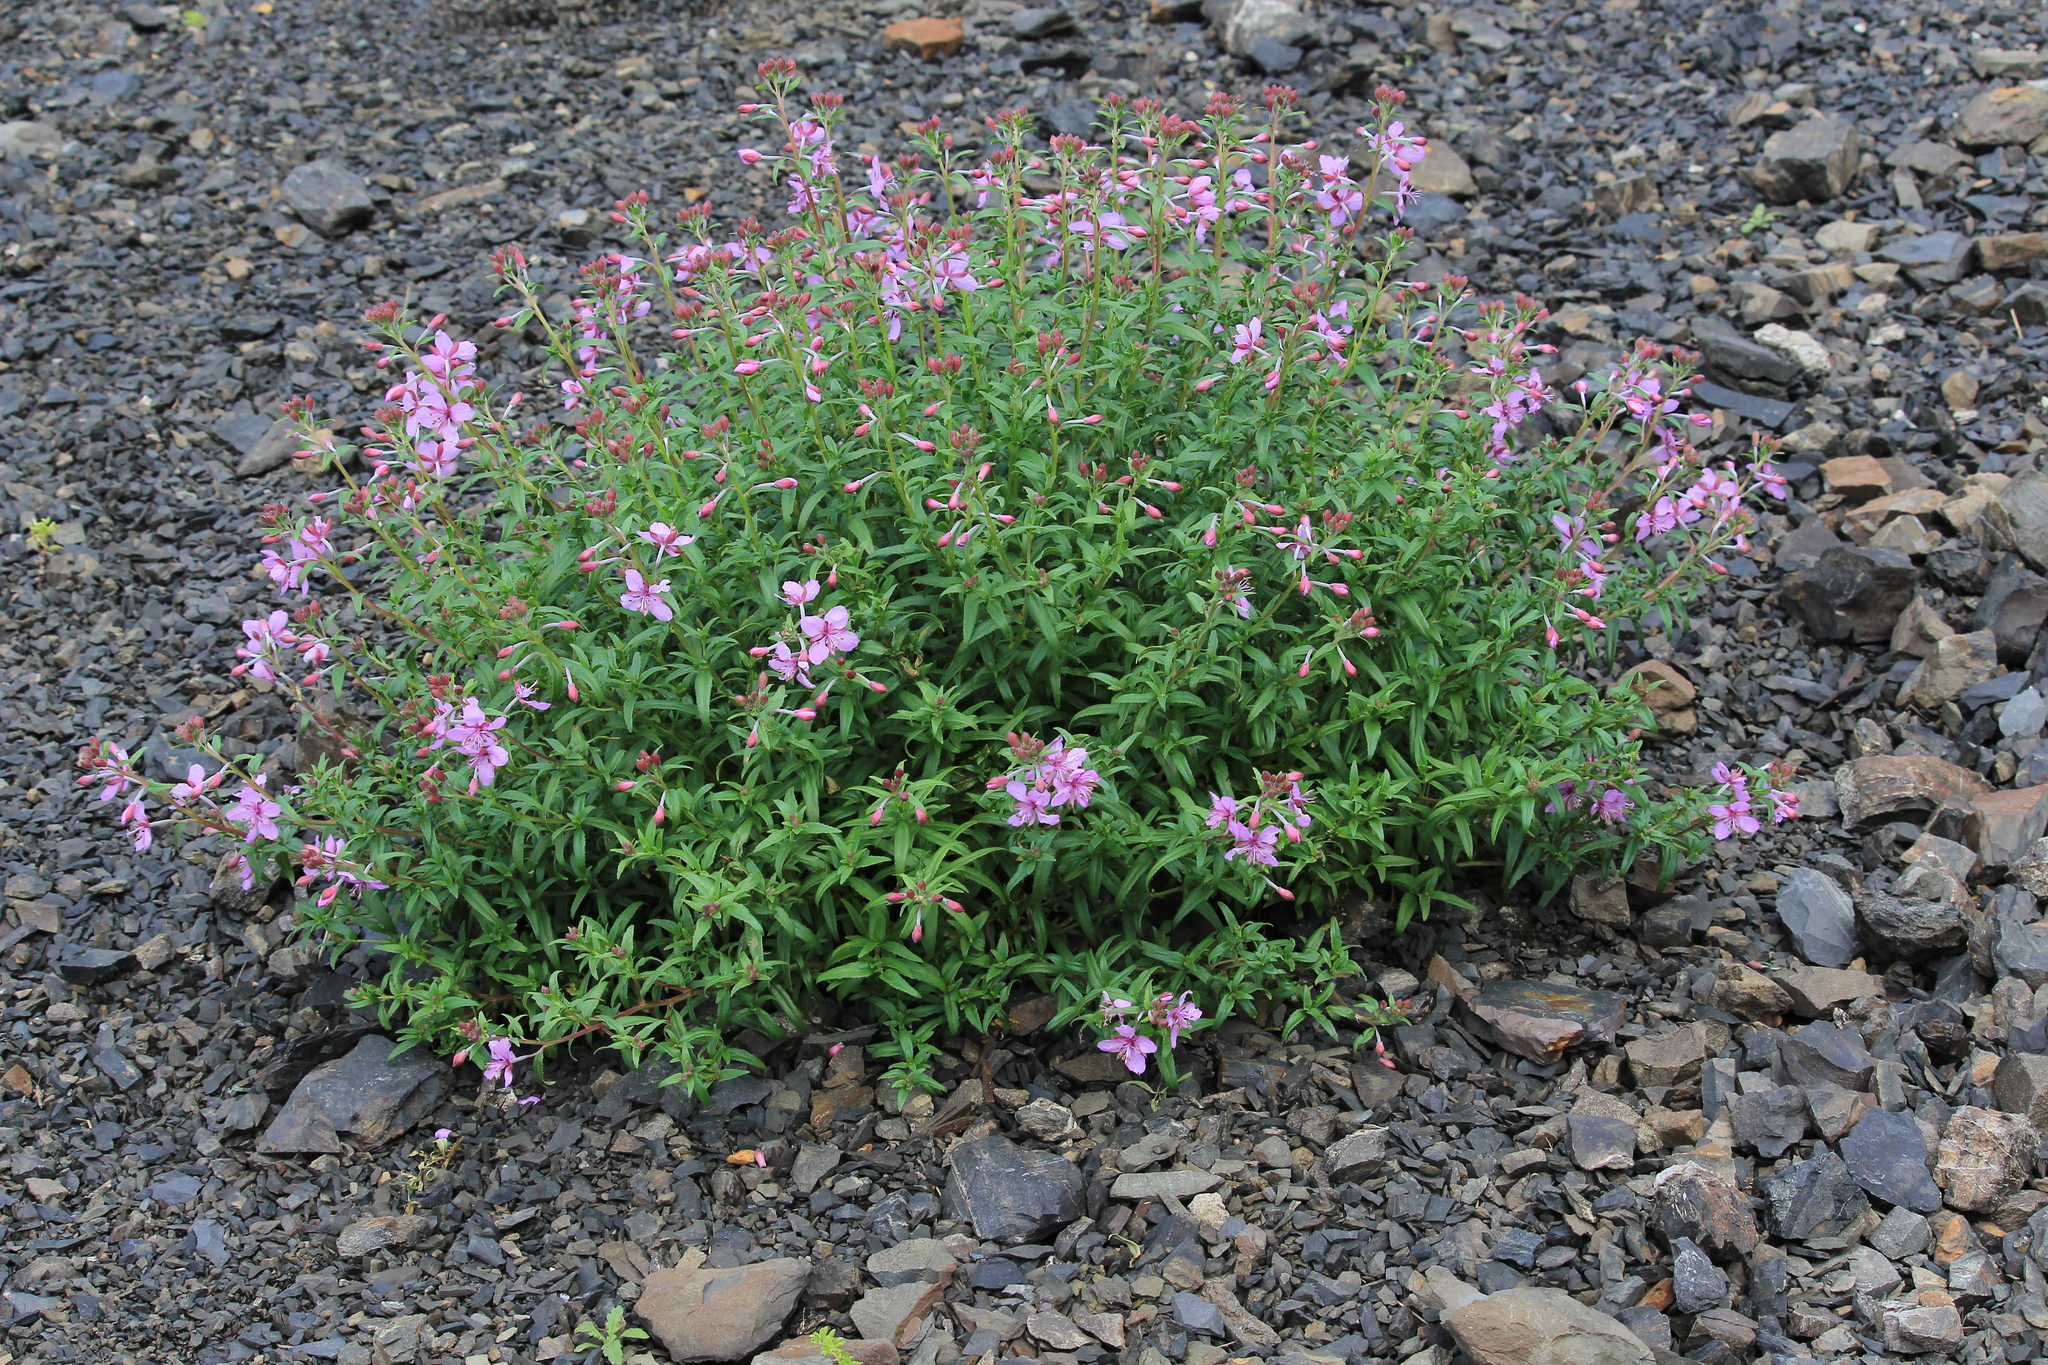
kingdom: Plantae
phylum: Tracheophyta
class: Magnoliopsida
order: Myrtales
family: Onagraceae
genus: Chamaenerion
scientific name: Chamaenerion colchicum
